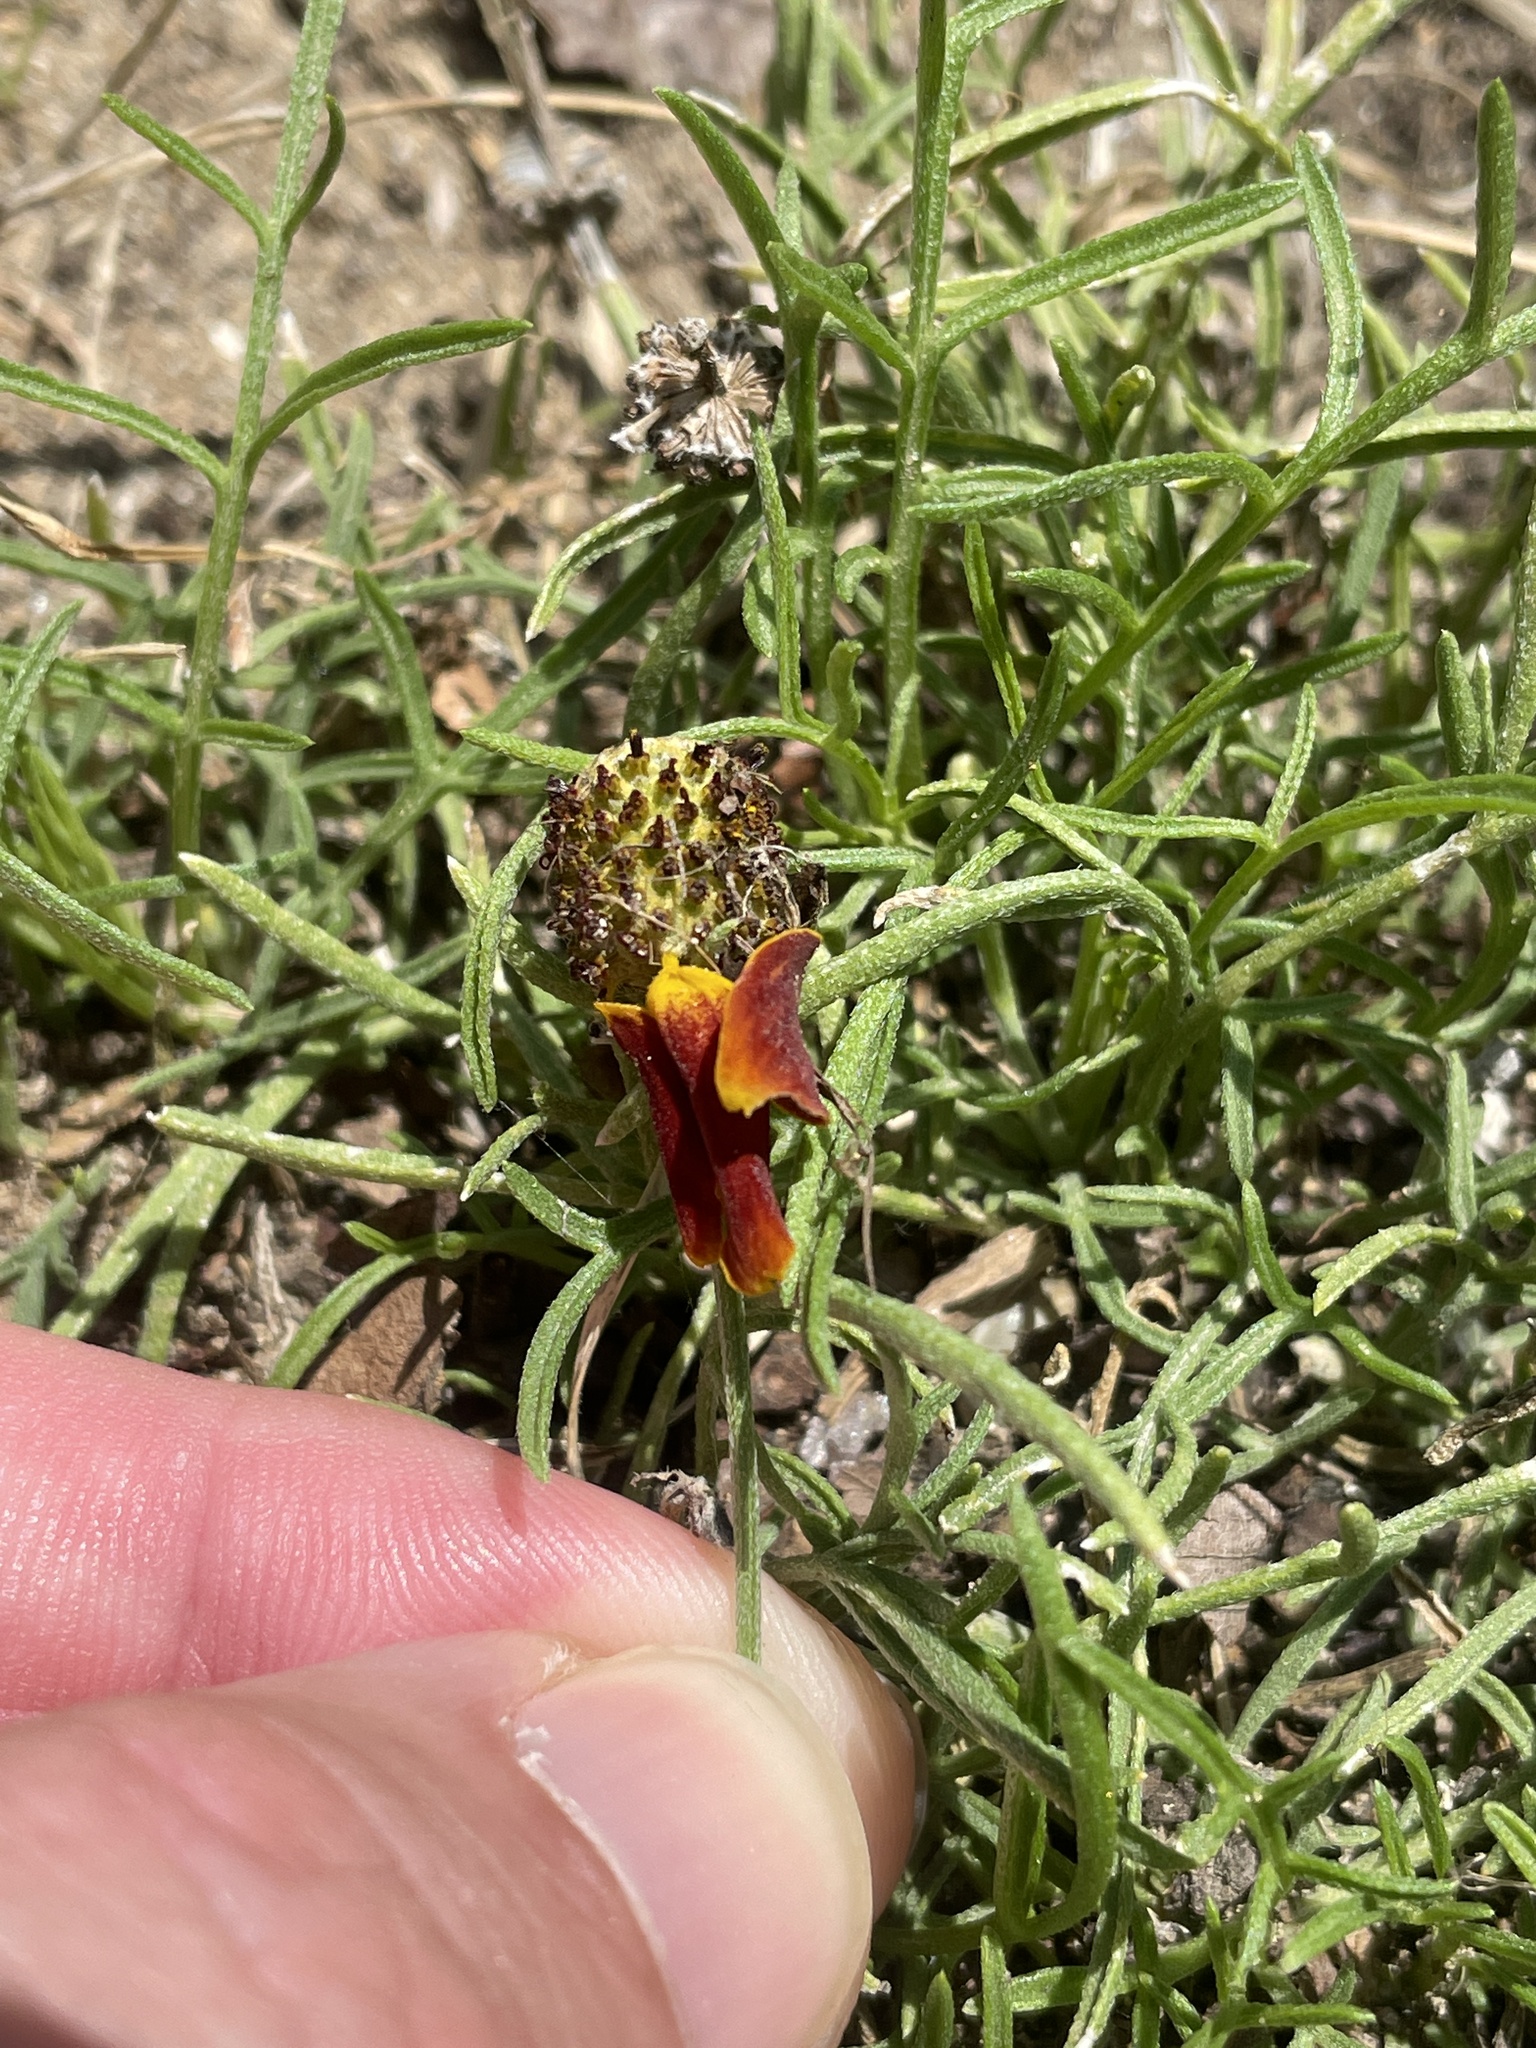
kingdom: Plantae
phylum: Tracheophyta
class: Magnoliopsida
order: Asterales
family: Asteraceae
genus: Ratibida
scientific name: Ratibida columnifera
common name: Prairie coneflower
